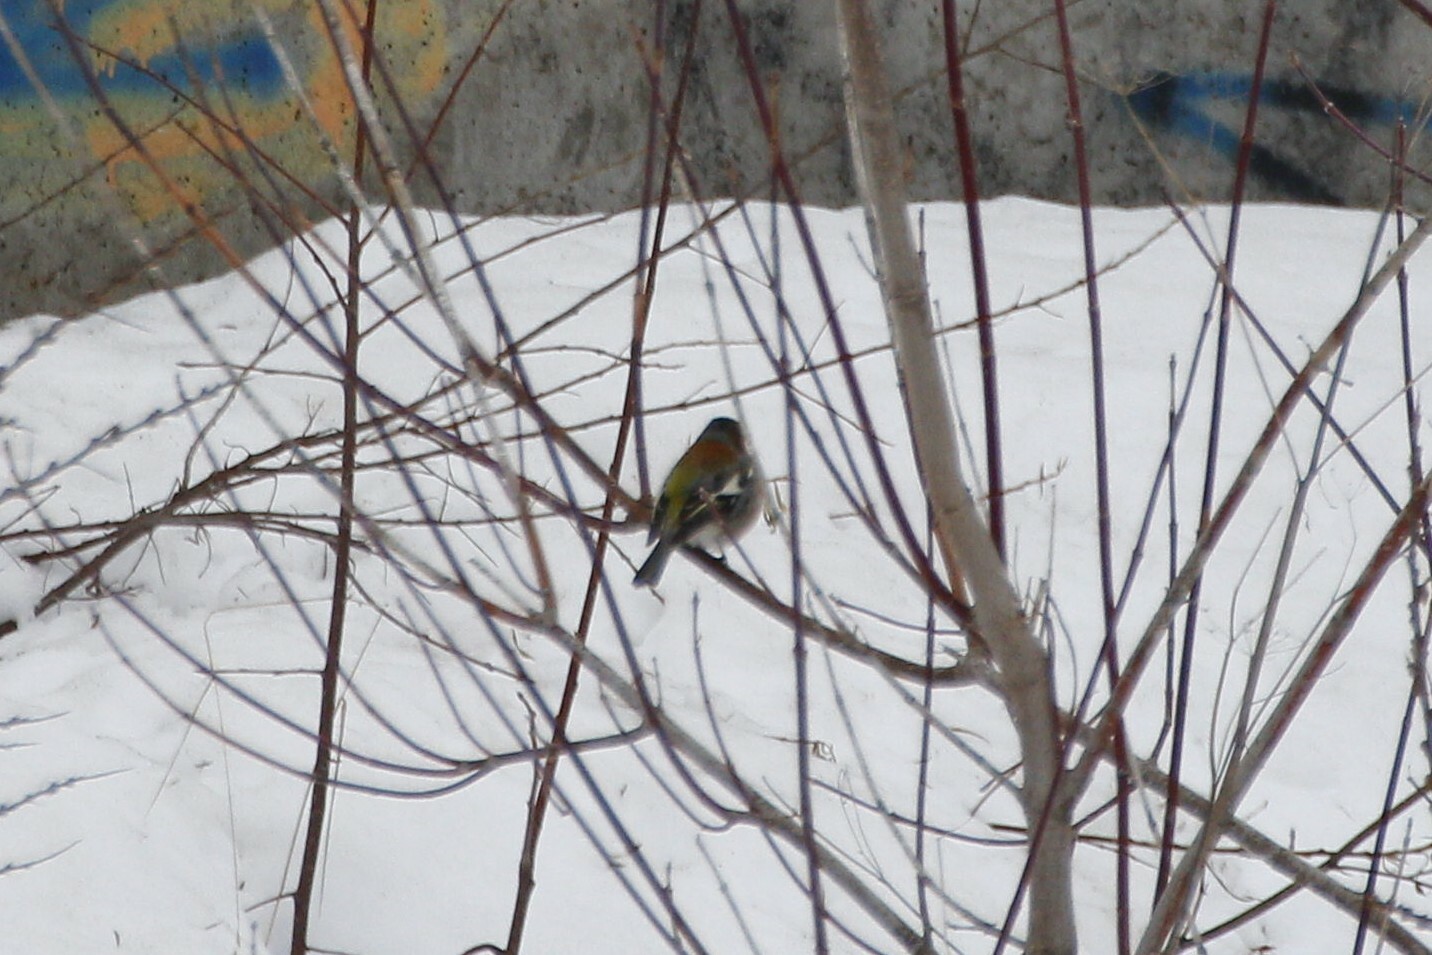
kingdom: Animalia
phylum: Chordata
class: Aves
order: Passeriformes
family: Fringillidae
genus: Fringilla
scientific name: Fringilla coelebs
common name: Common chaffinch
